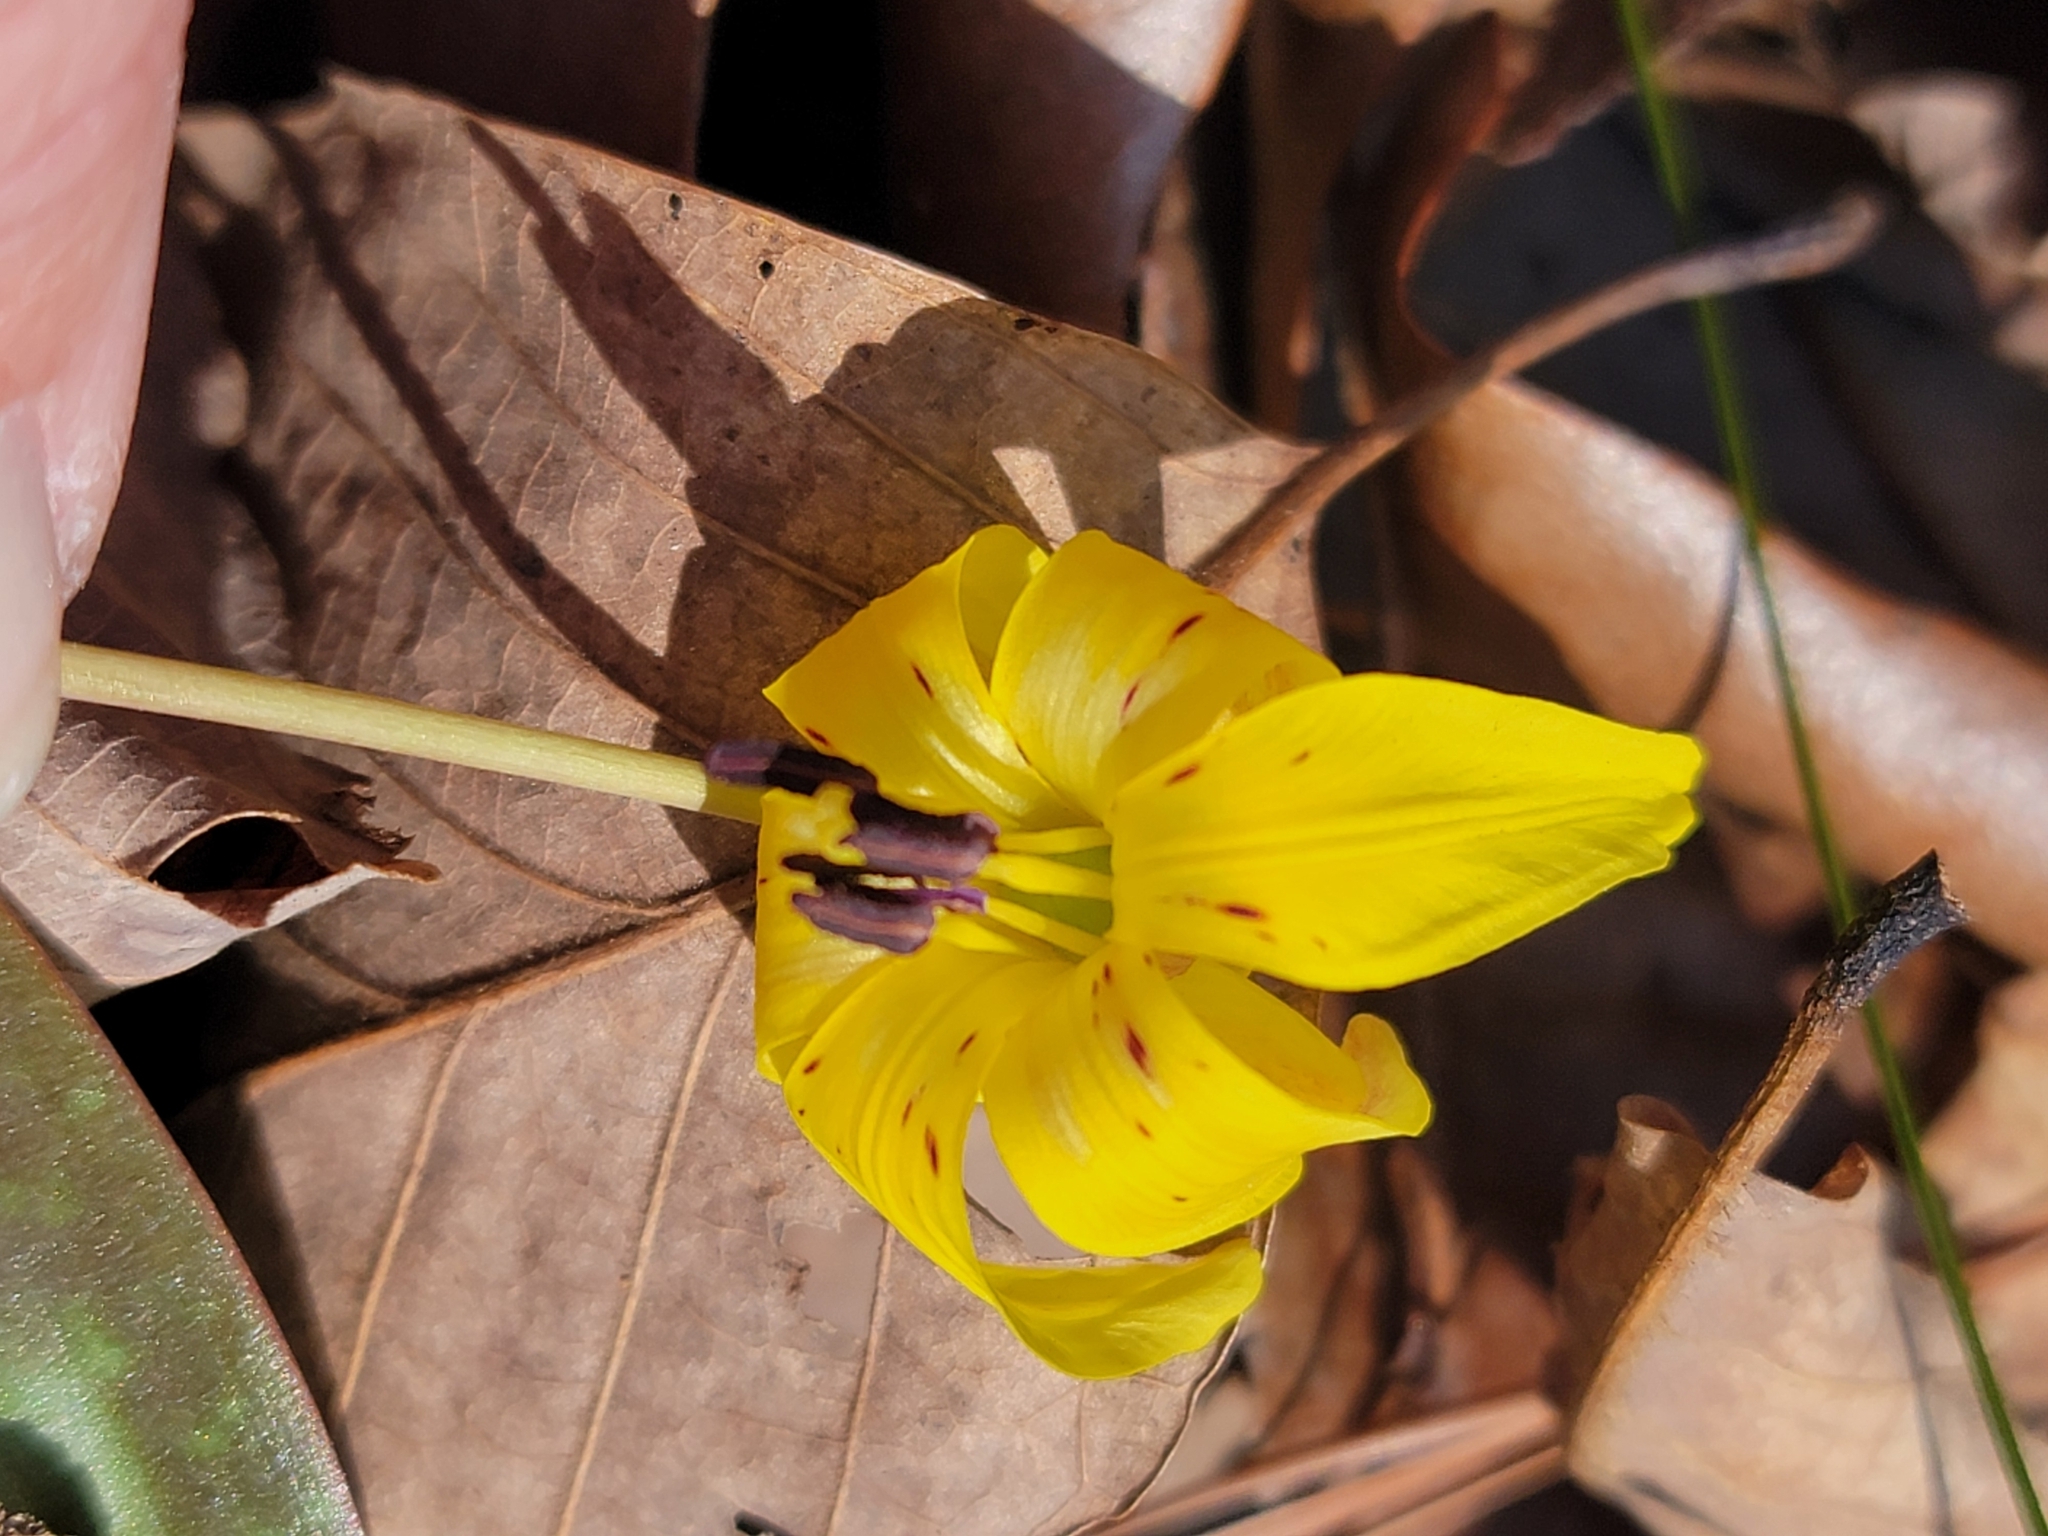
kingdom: Plantae
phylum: Tracheophyta
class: Liliopsida
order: Liliales
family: Liliaceae
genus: Erythronium
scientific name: Erythronium umbilicatum
